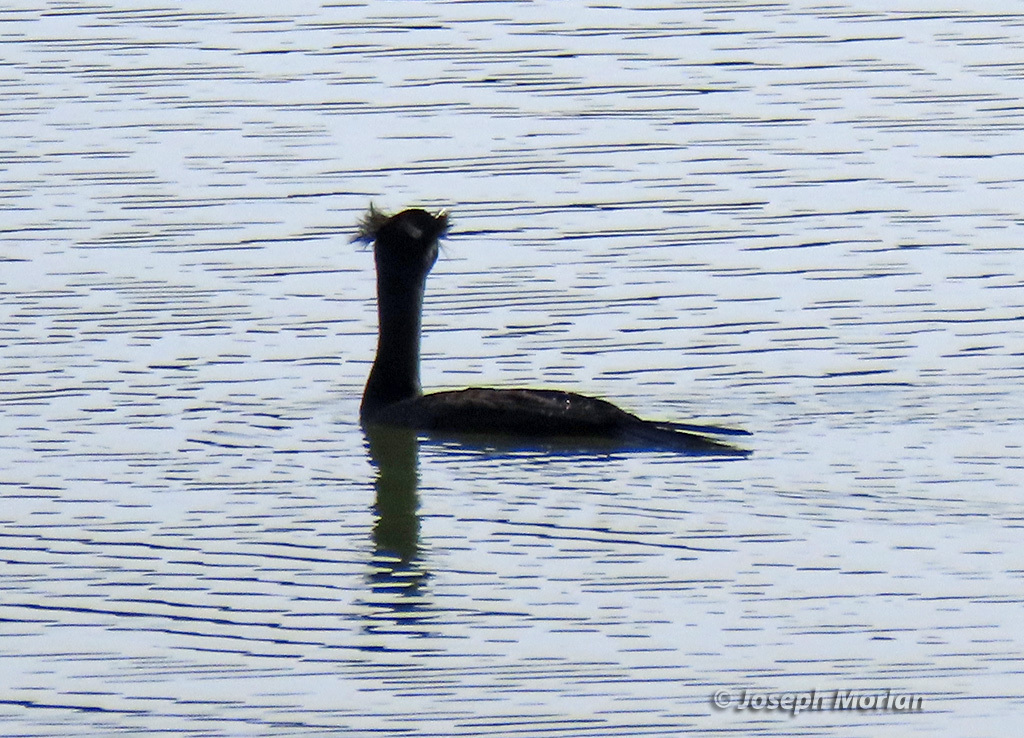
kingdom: Animalia
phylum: Chordata
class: Aves
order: Suliformes
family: Phalacrocoracidae
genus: Phalacrocorax
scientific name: Phalacrocorax auritus
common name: Double-crested cormorant
